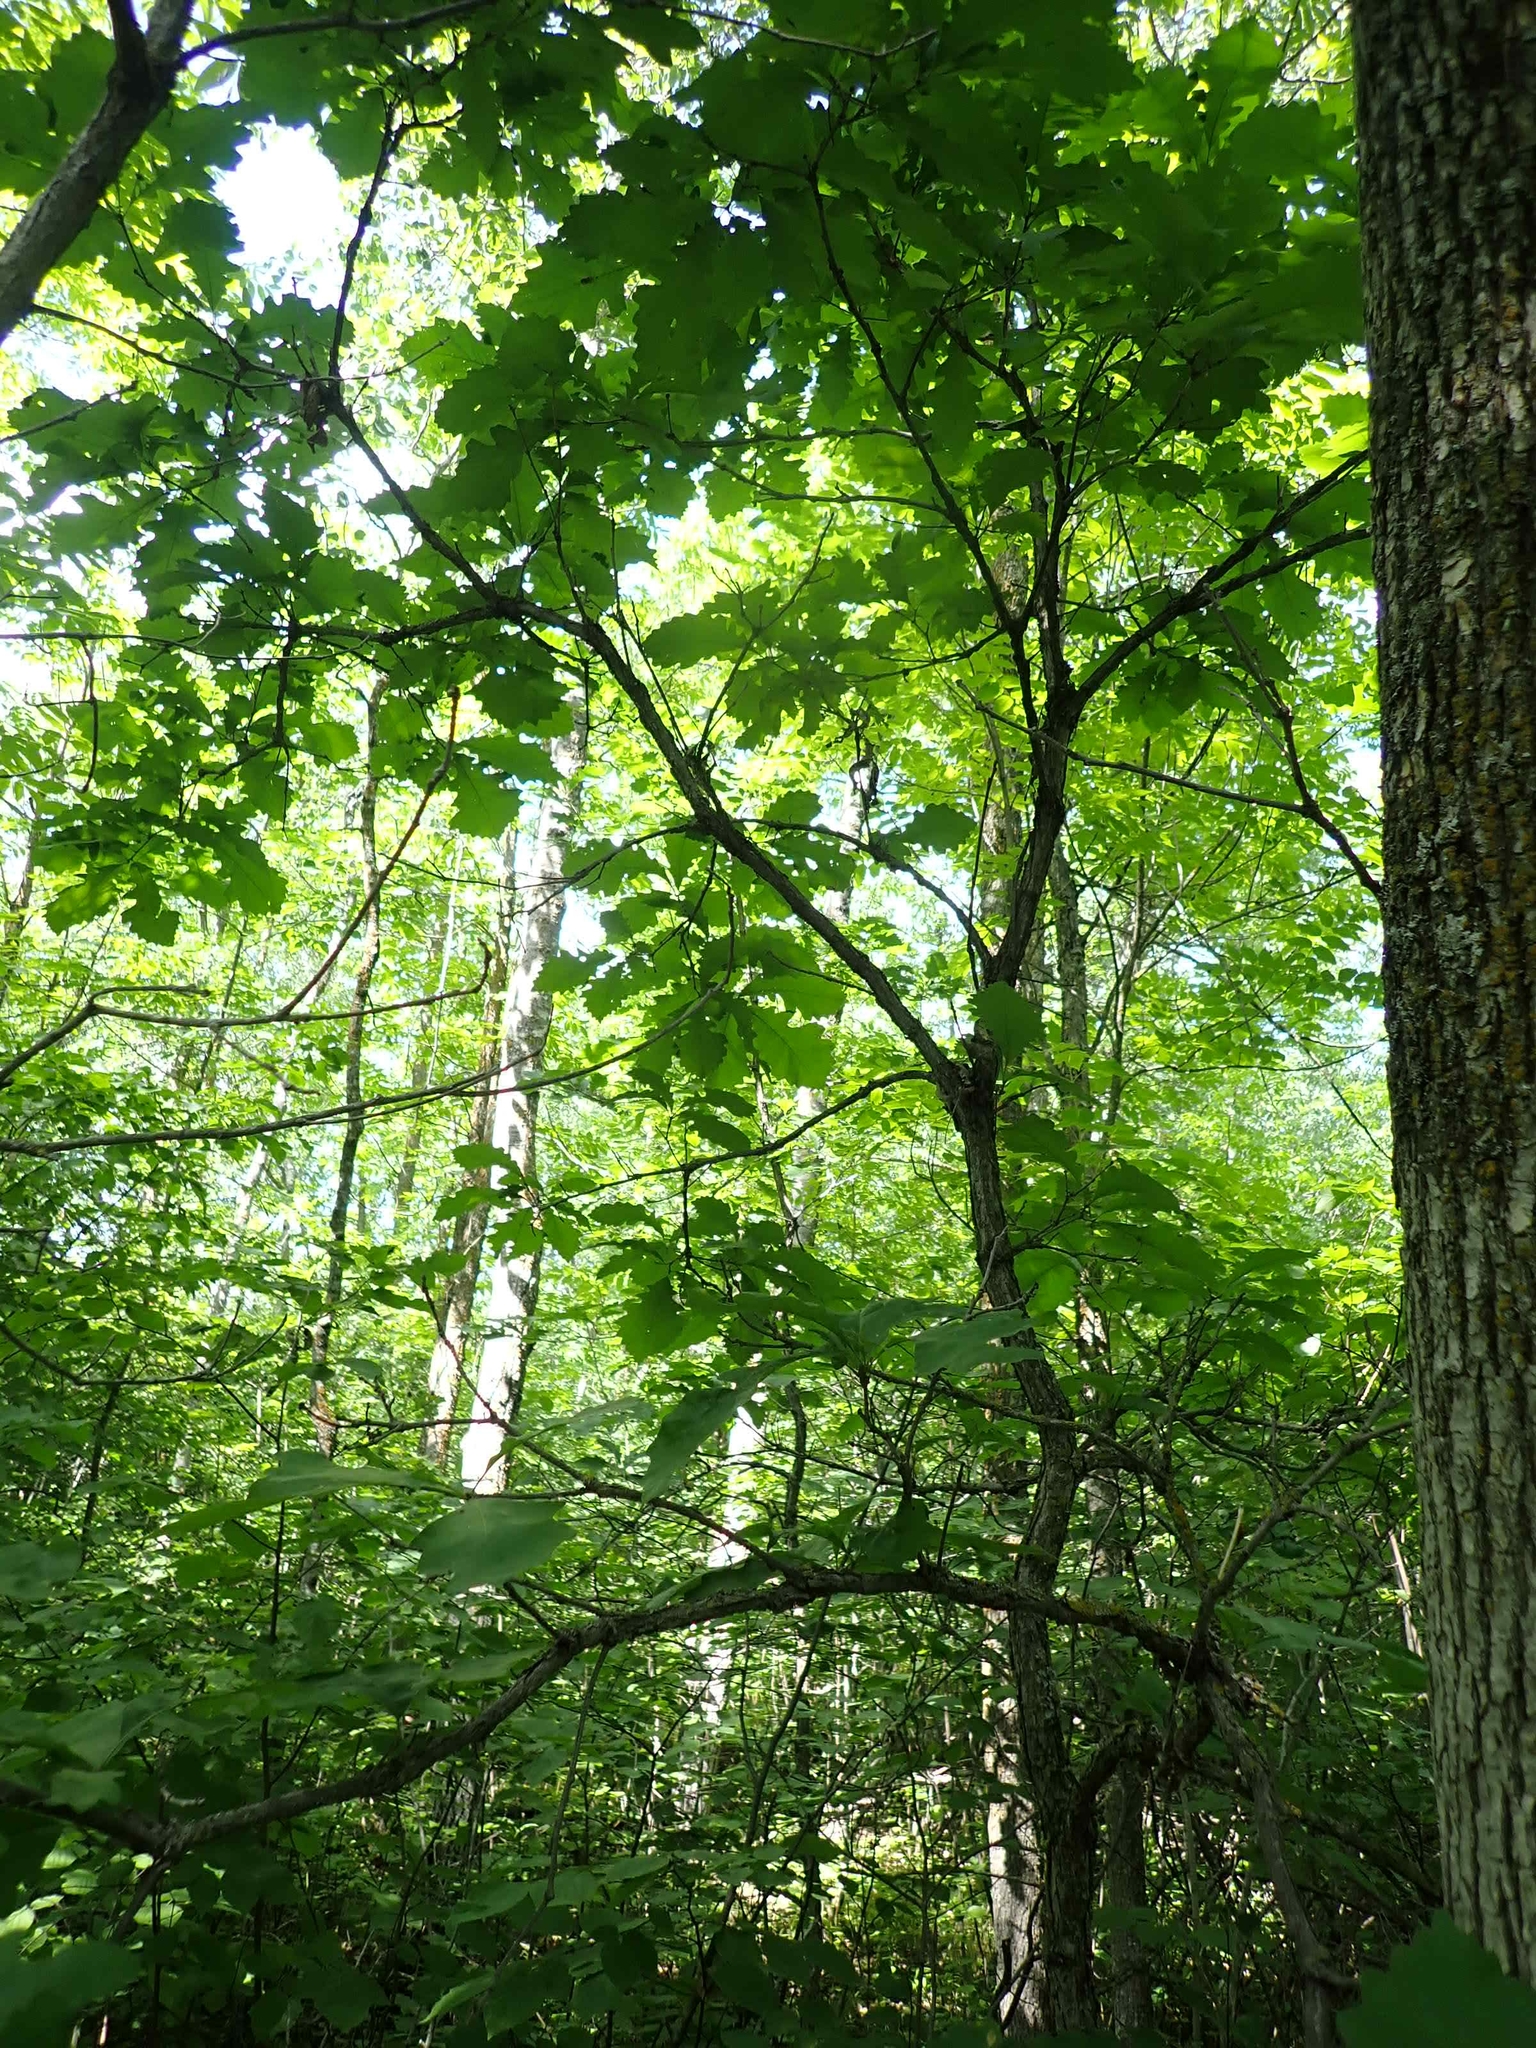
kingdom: Plantae
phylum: Tracheophyta
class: Magnoliopsida
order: Fagales
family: Fagaceae
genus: Quercus
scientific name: Quercus macrocarpa
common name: Bur oak
